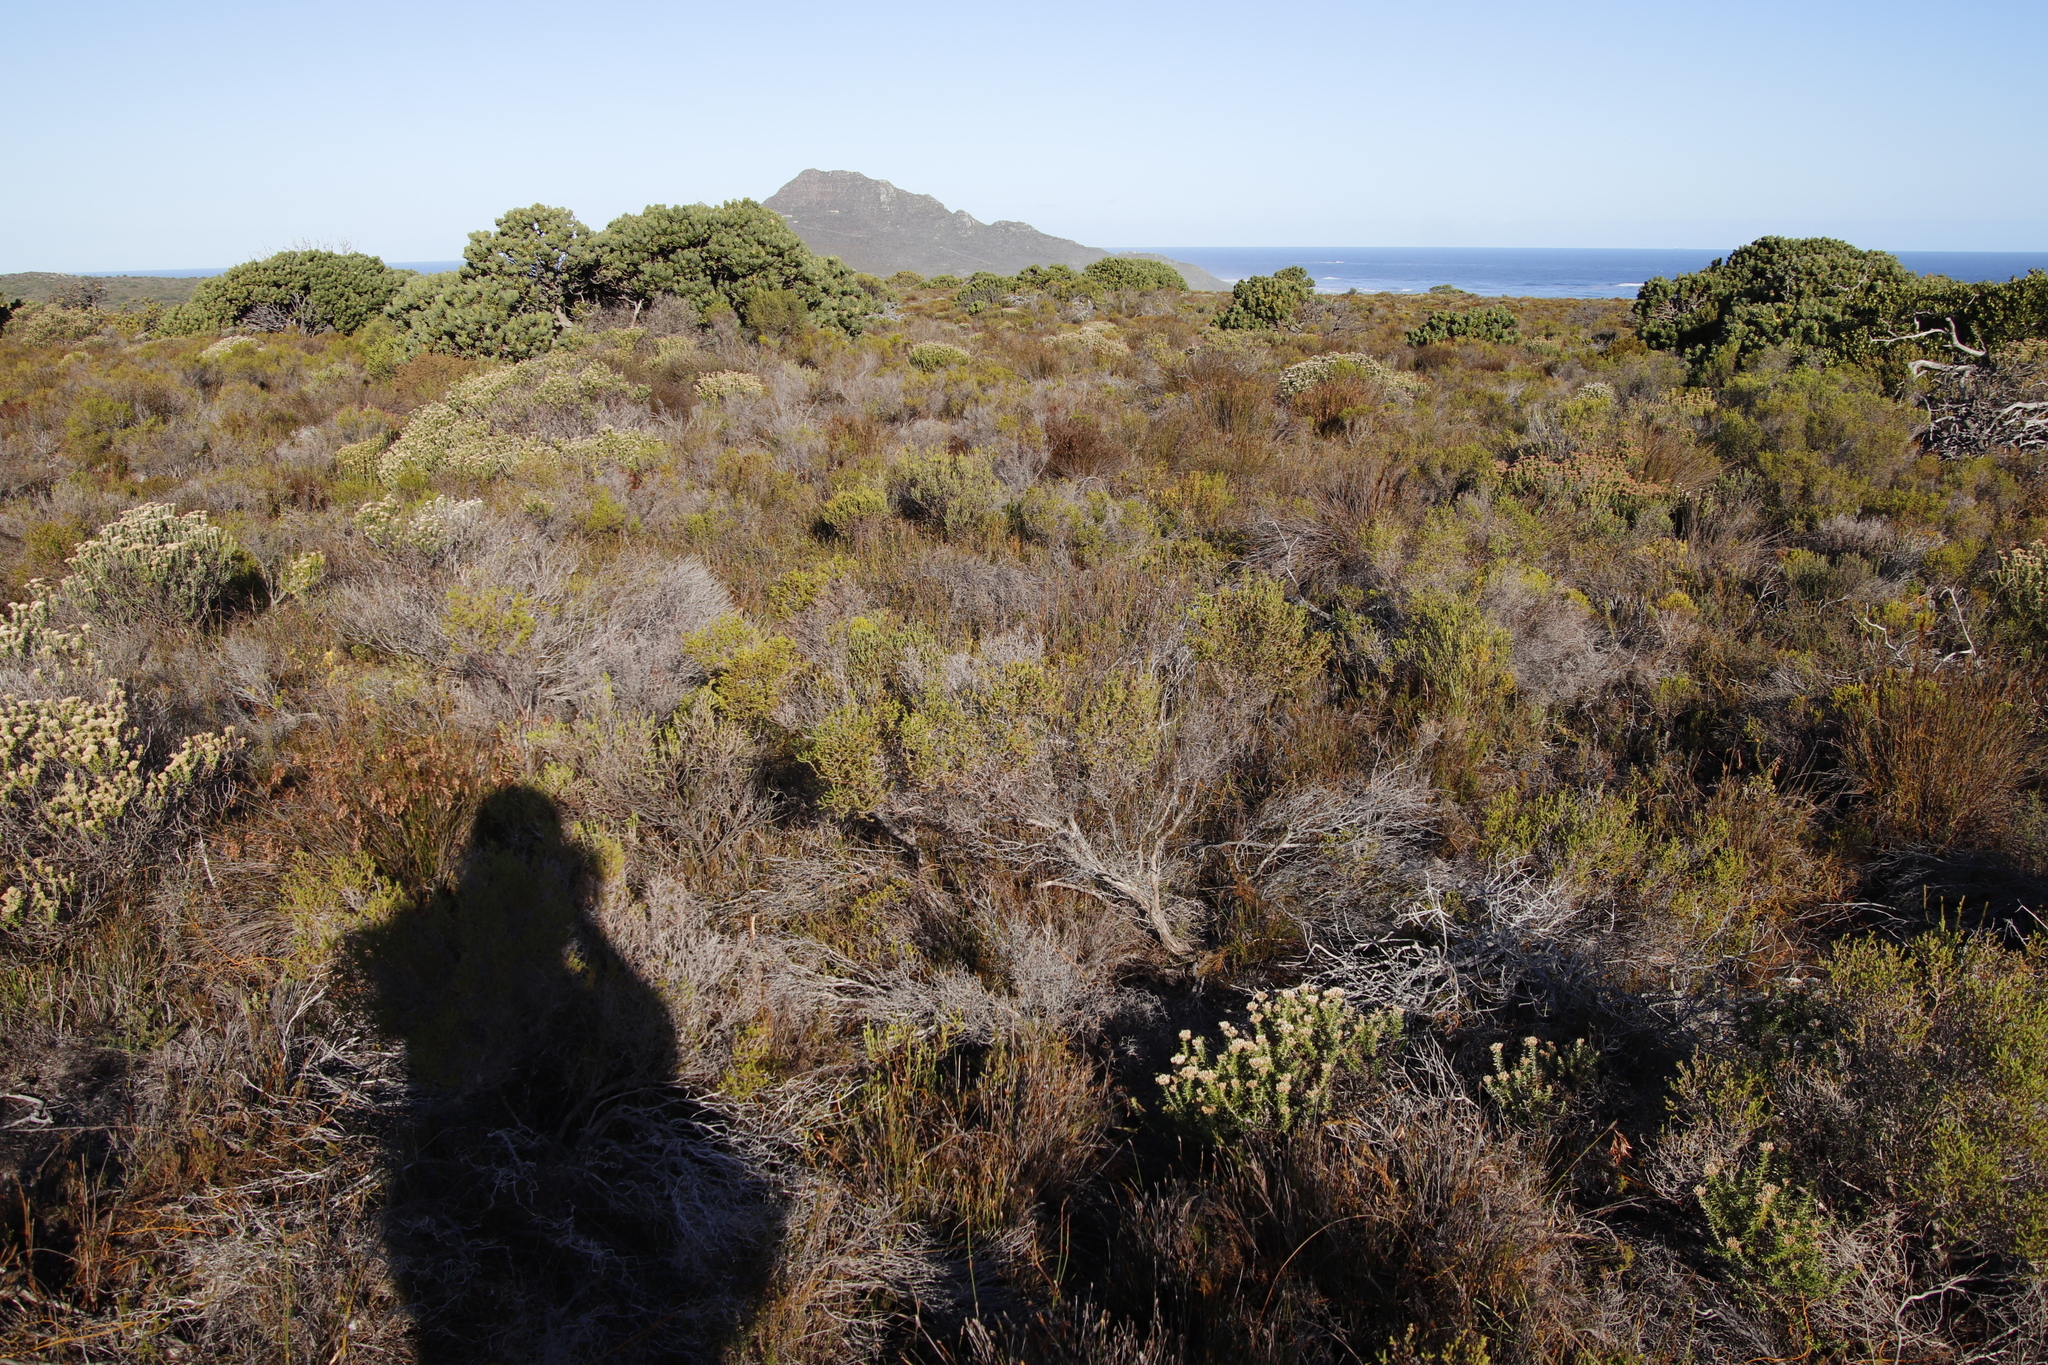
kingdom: Plantae
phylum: Tracheophyta
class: Magnoliopsida
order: Ericales
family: Ericaceae
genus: Erica
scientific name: Erica axillaris
